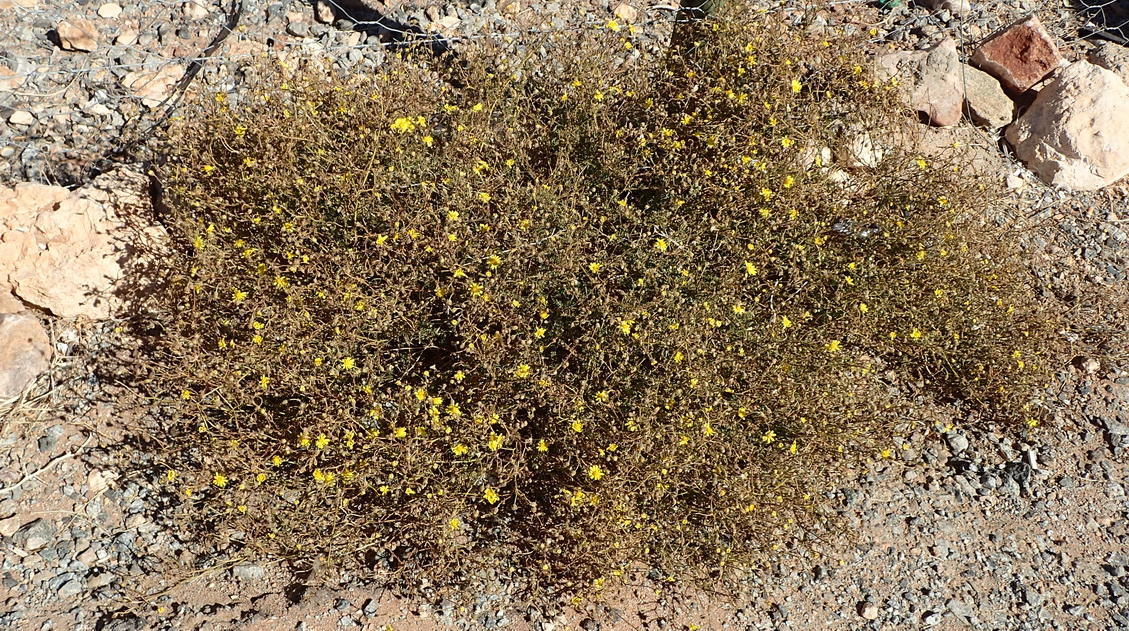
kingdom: Plantae
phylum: Tracheophyta
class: Magnoliopsida
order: Asterales
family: Asteraceae
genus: Osteospermum
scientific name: Osteospermum polypterum
